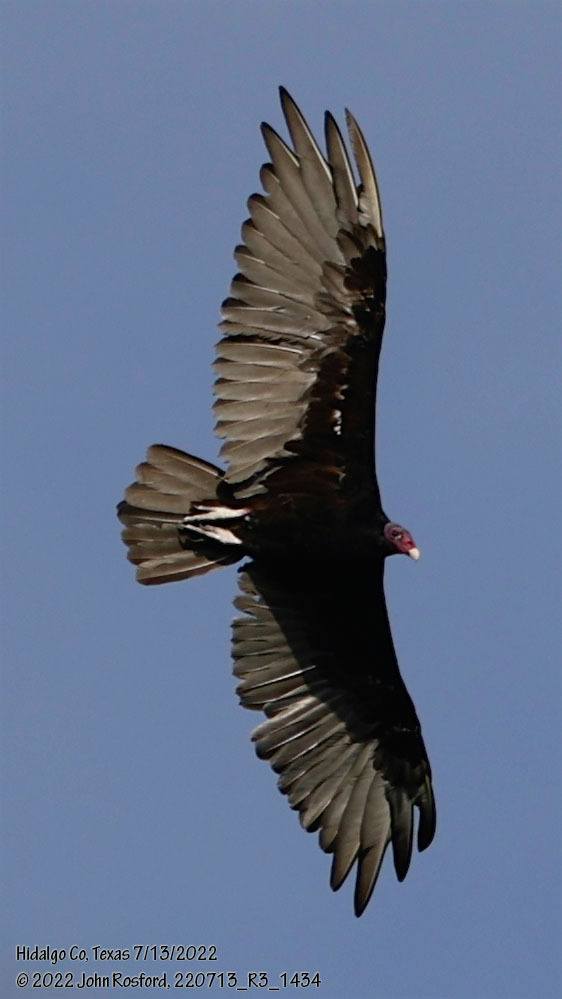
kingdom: Animalia
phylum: Chordata
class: Aves
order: Accipitriformes
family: Cathartidae
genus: Cathartes
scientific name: Cathartes aura
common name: Turkey vulture
